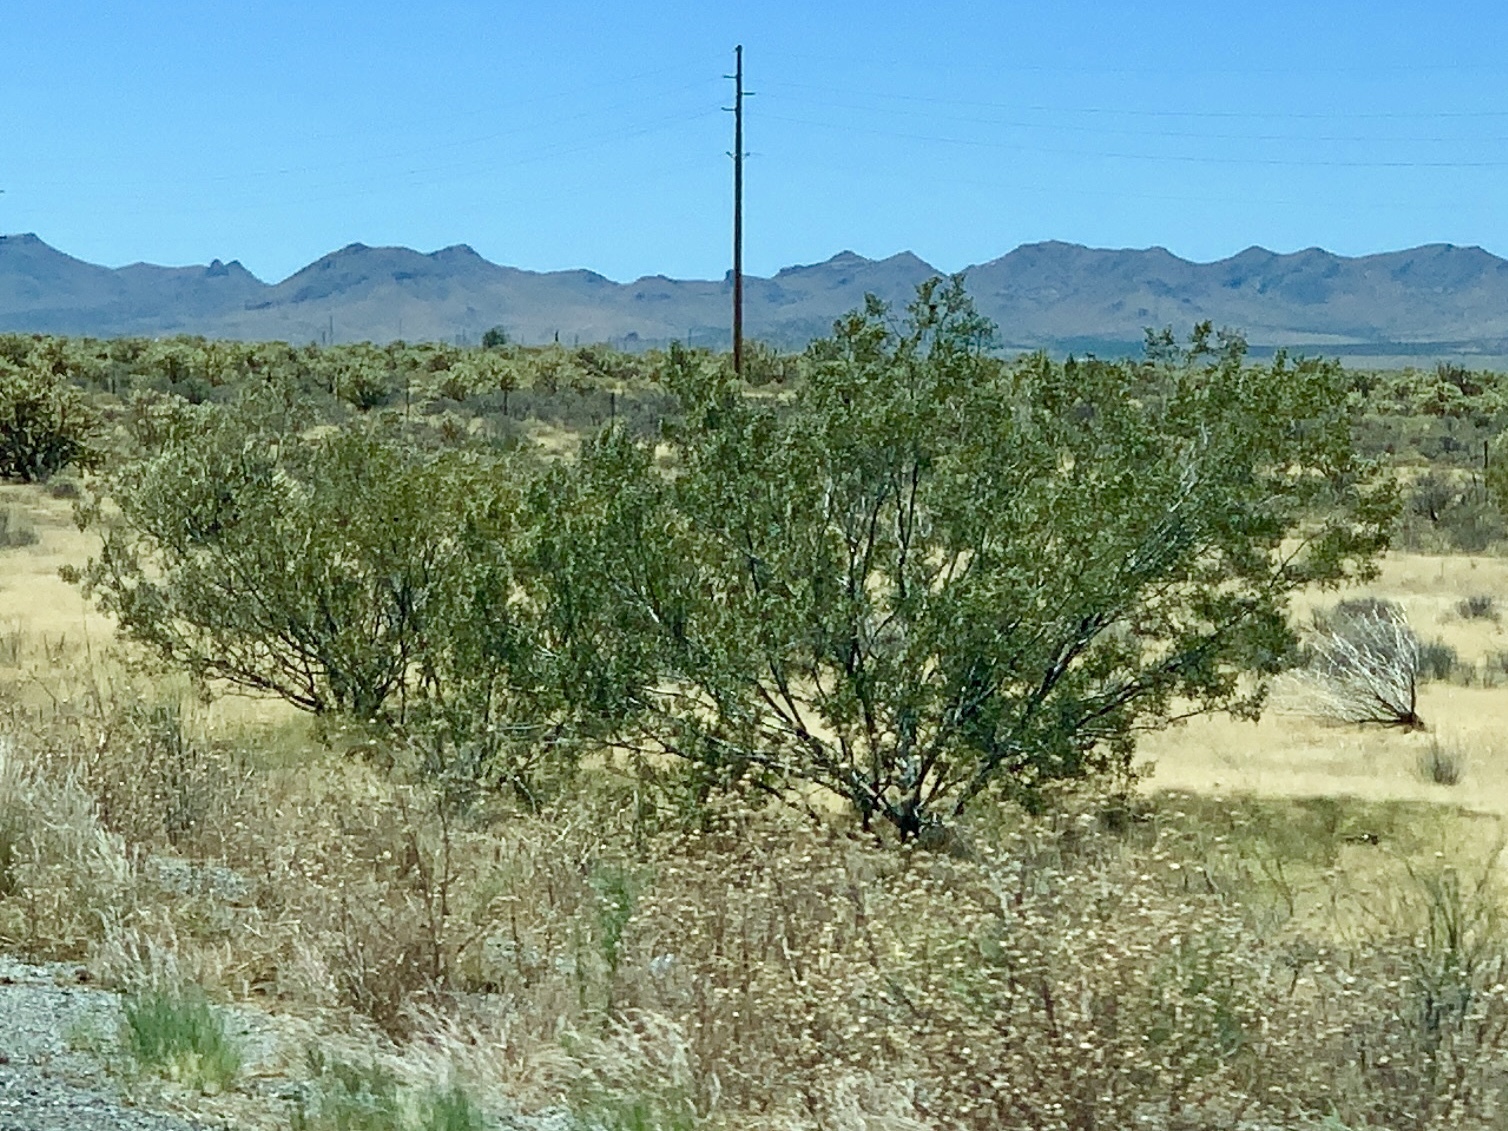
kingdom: Plantae
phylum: Tracheophyta
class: Magnoliopsida
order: Zygophyllales
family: Zygophyllaceae
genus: Larrea
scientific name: Larrea tridentata
